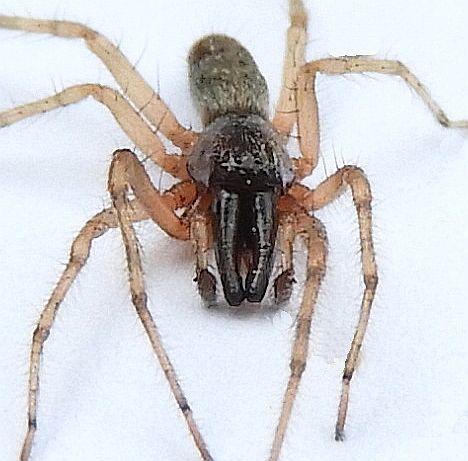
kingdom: Animalia
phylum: Arthropoda
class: Arachnida
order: Araneae
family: Anyphaenidae
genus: Lupettiana
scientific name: Lupettiana mordax
